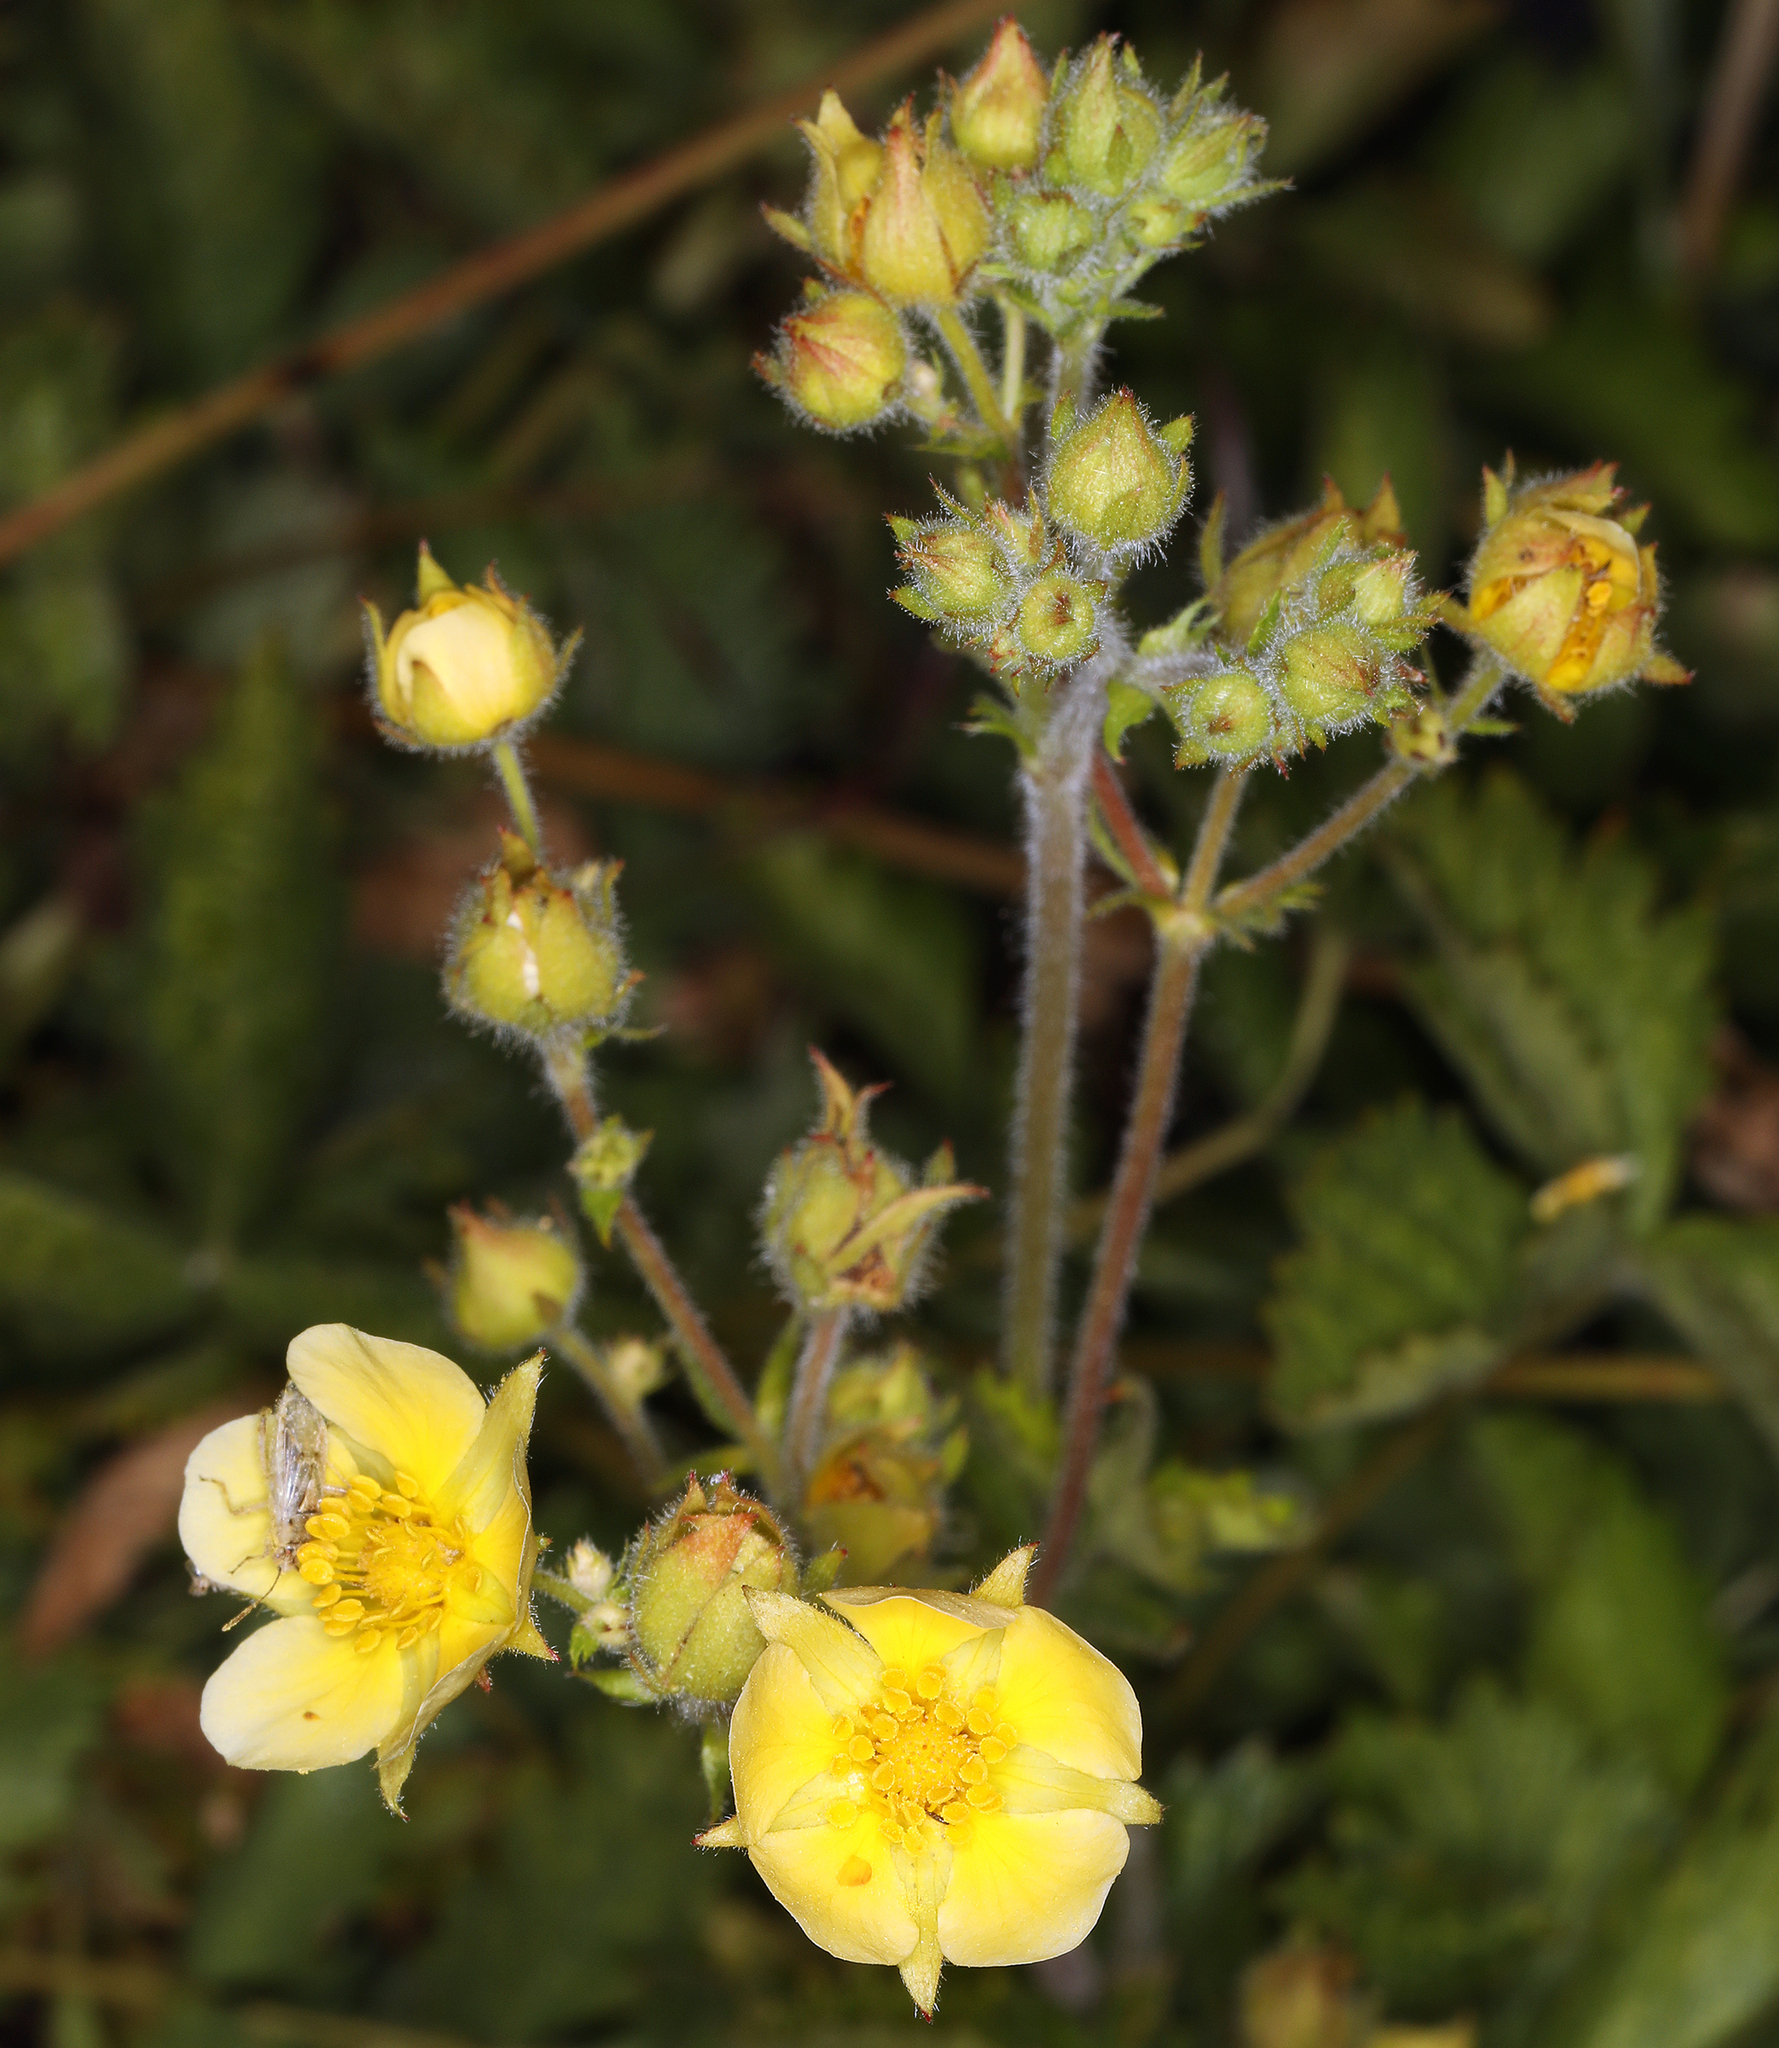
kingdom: Plantae
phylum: Tracheophyta
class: Magnoliopsida
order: Rosales
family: Rosaceae
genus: Drymocallis
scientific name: Drymocallis lactea
